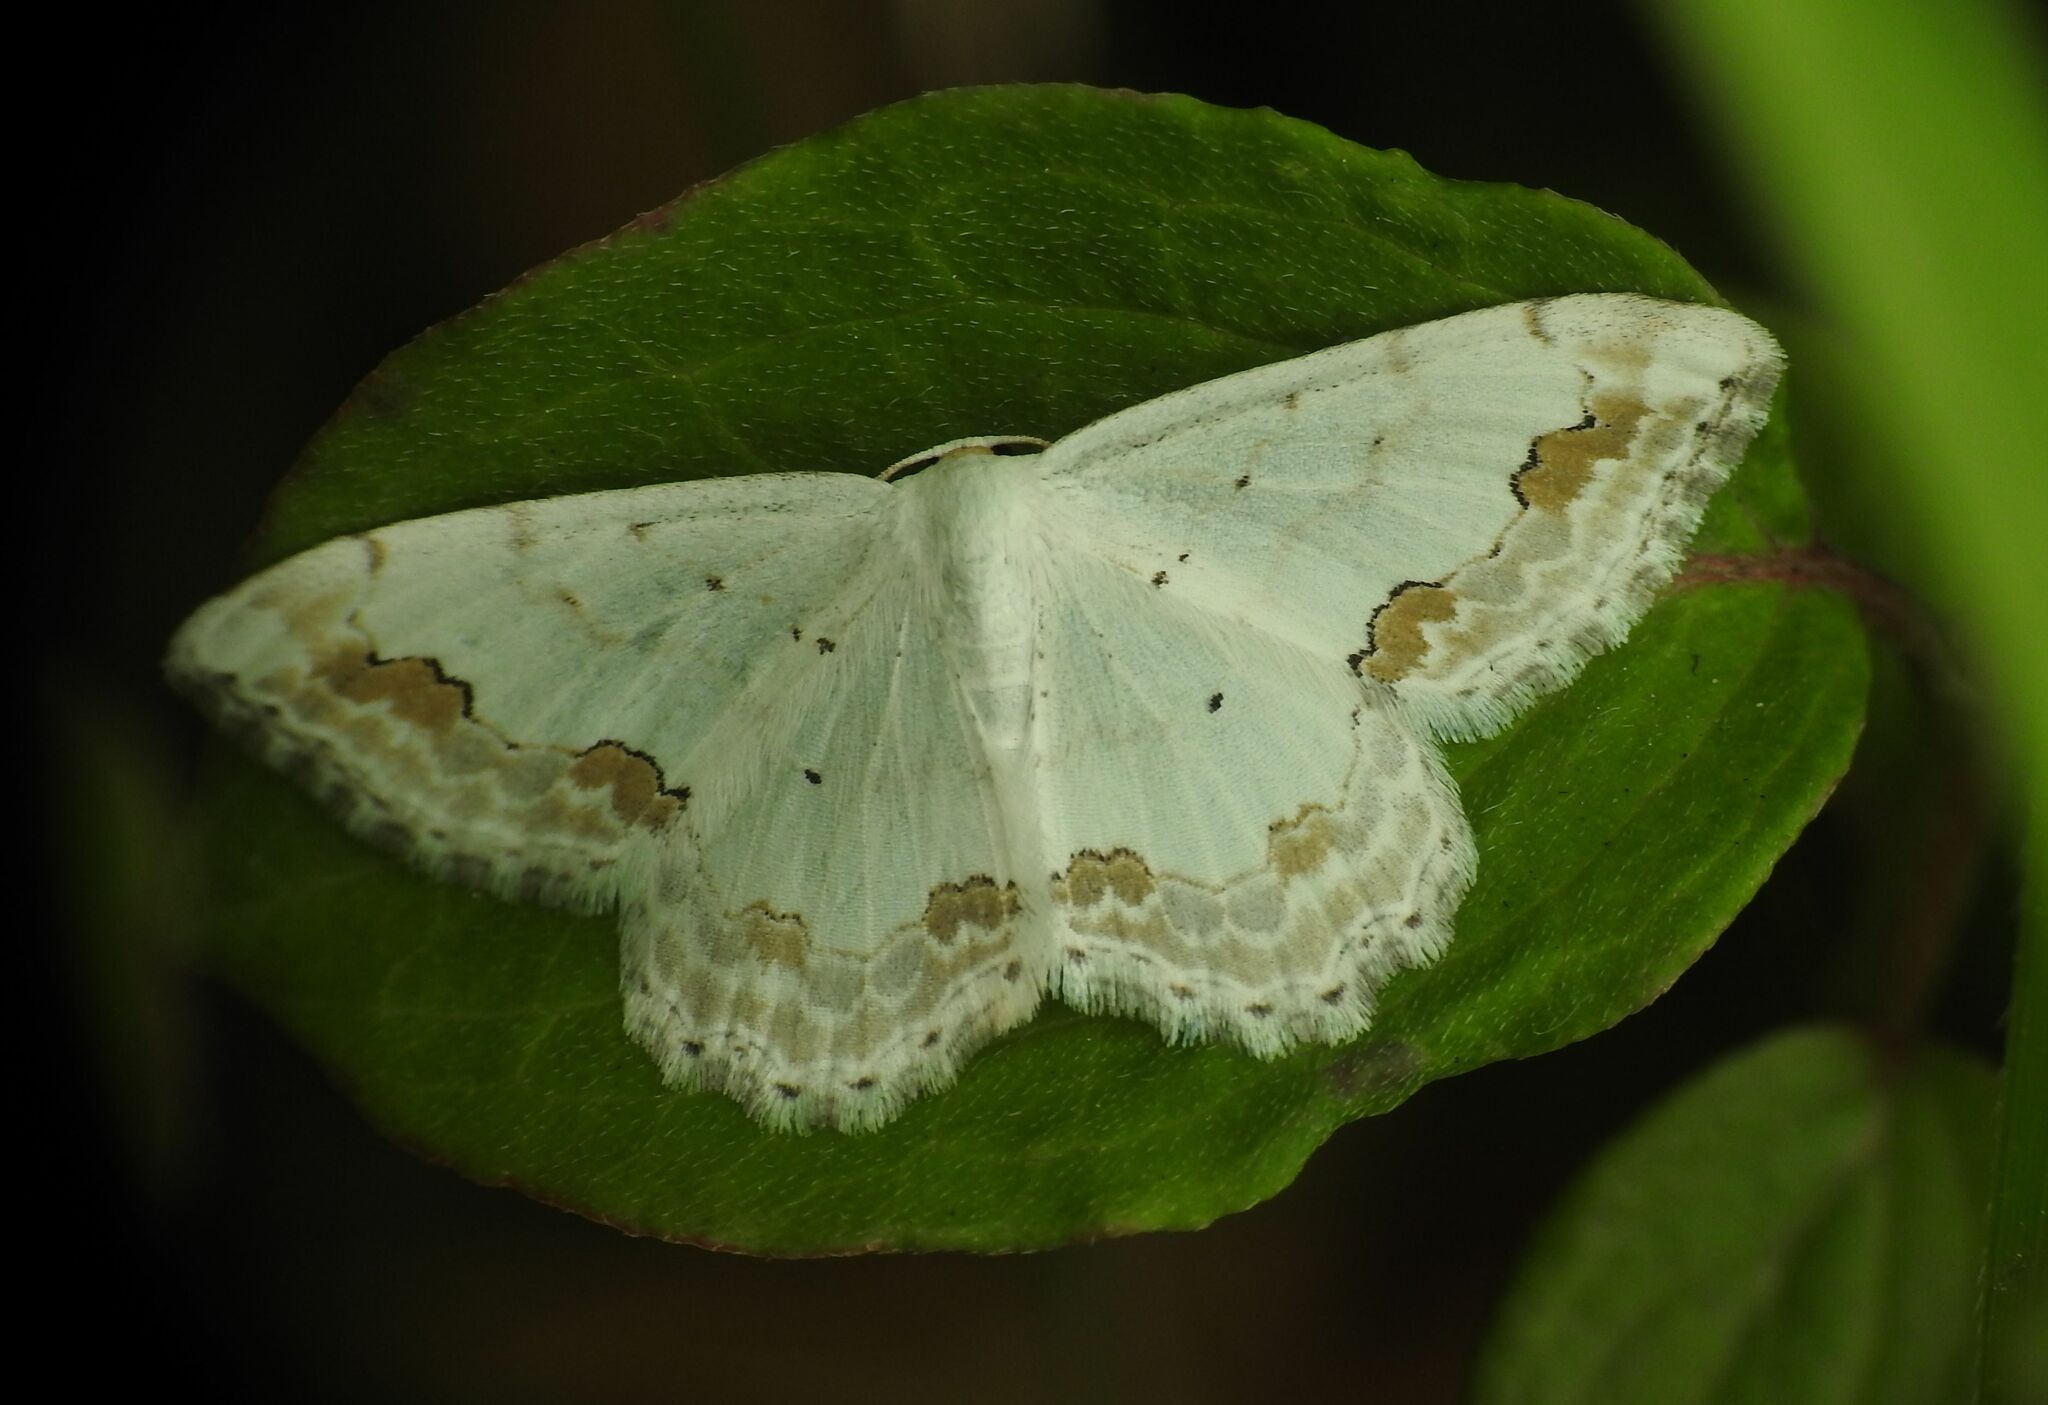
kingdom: Animalia
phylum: Arthropoda
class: Insecta
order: Lepidoptera
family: Geometridae
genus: Scopula
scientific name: Scopula ornata
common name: Lace border
